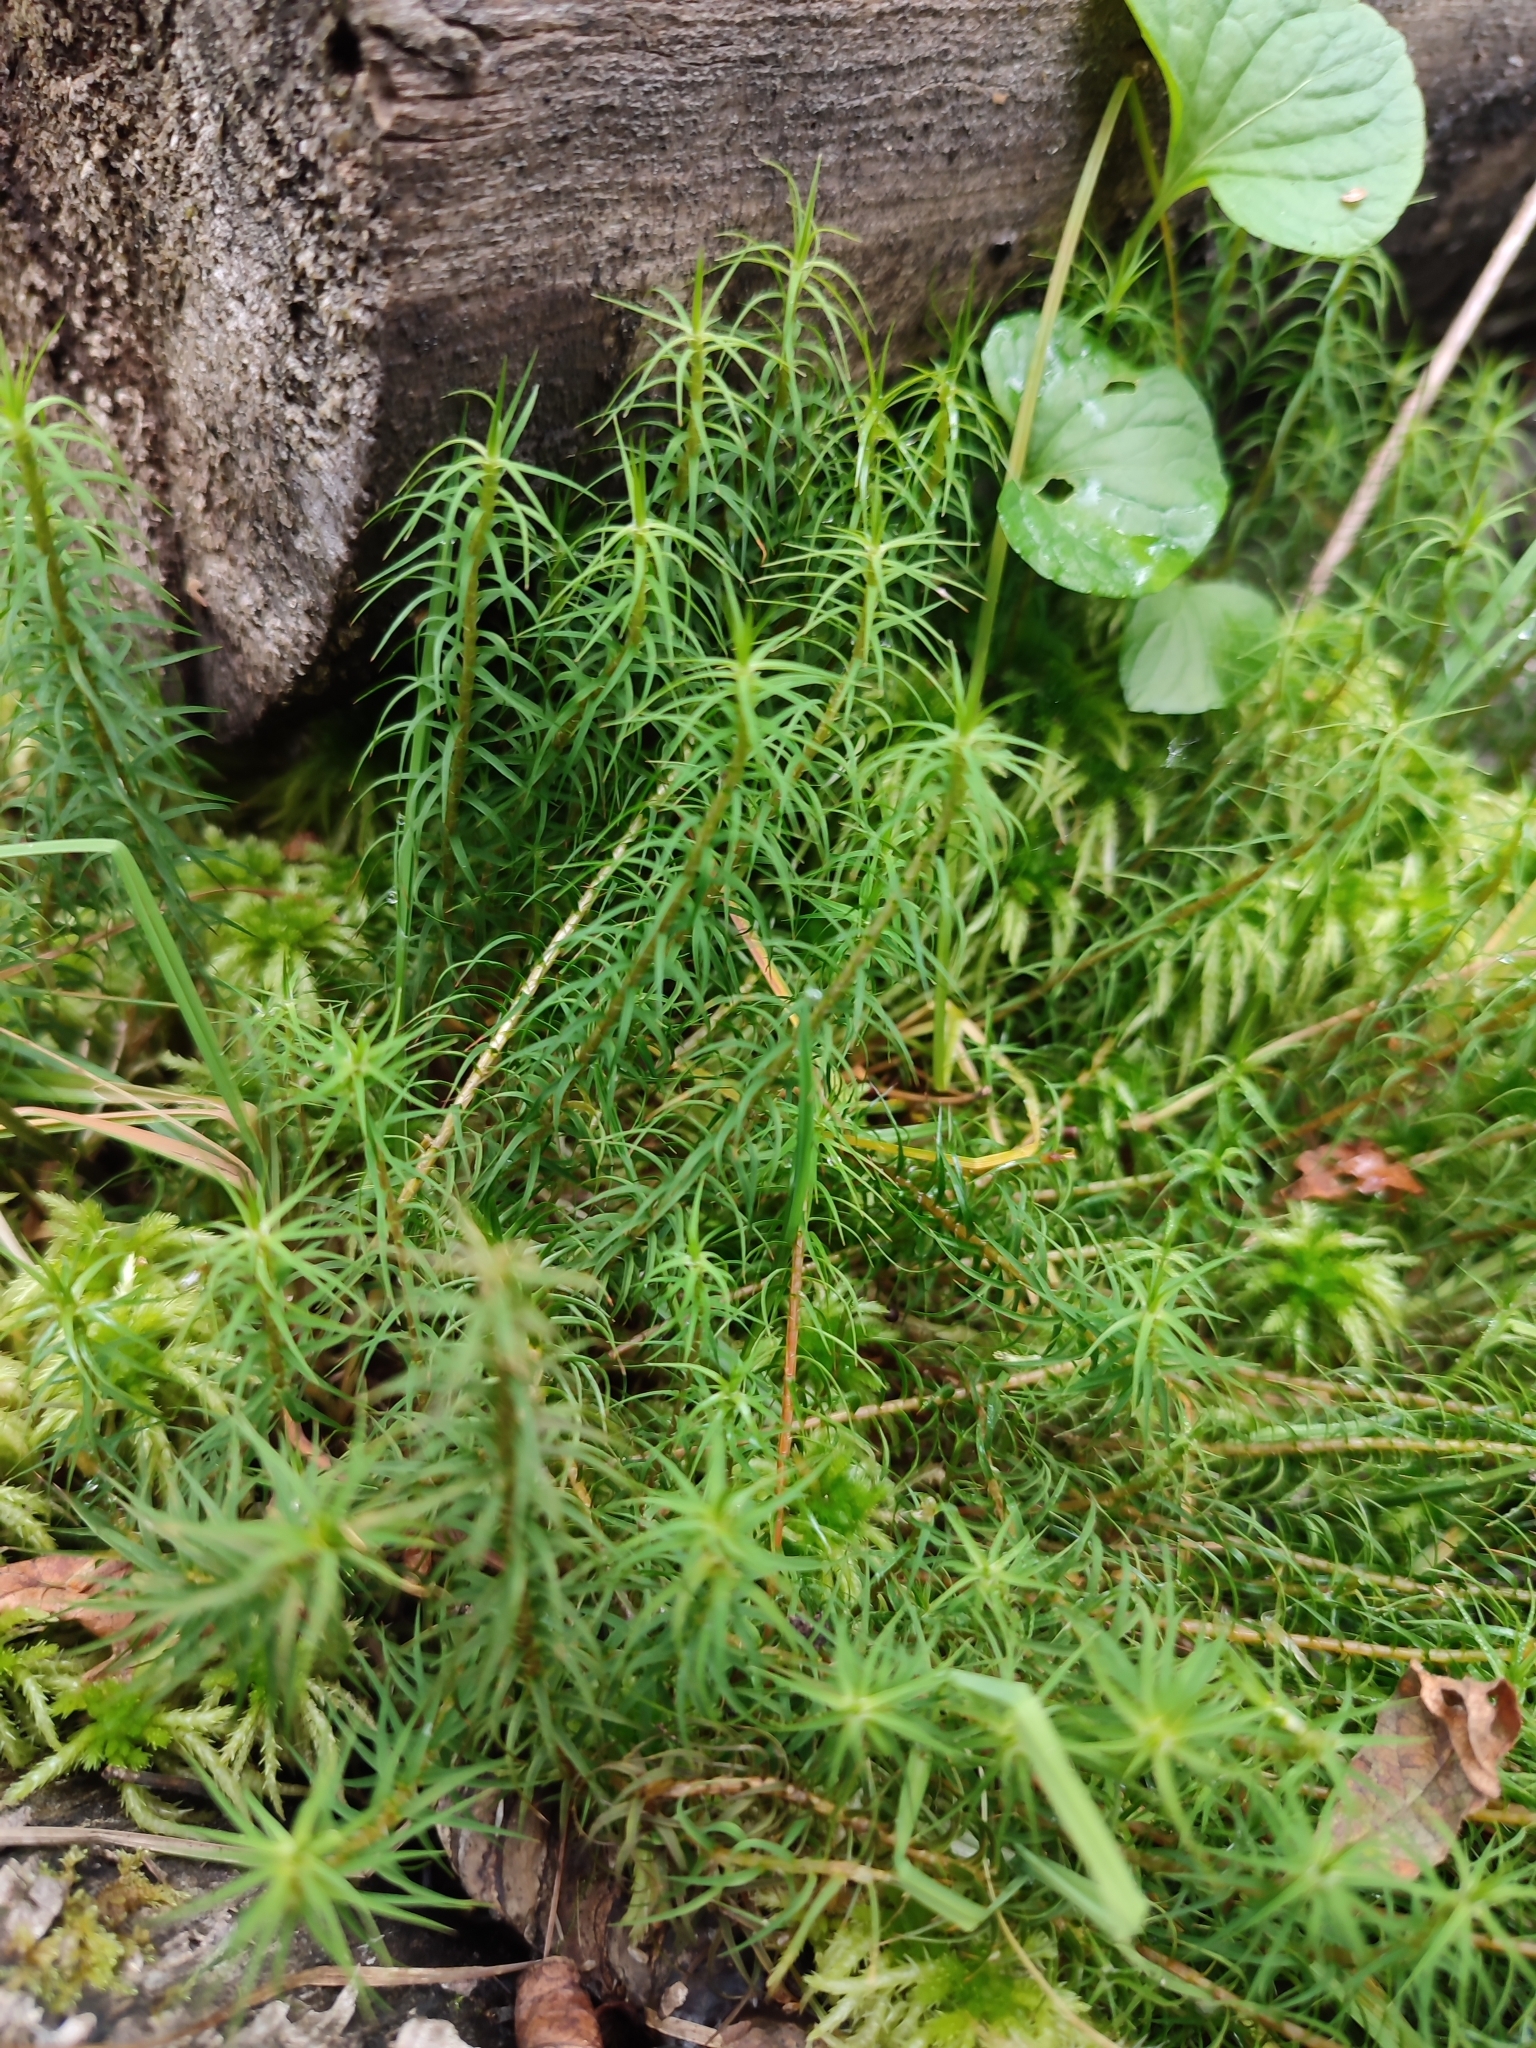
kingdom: Plantae
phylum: Bryophyta
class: Polytrichopsida
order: Polytrichales
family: Polytrichaceae
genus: Polytrichum
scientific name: Polytrichum commune
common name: Common haircap
